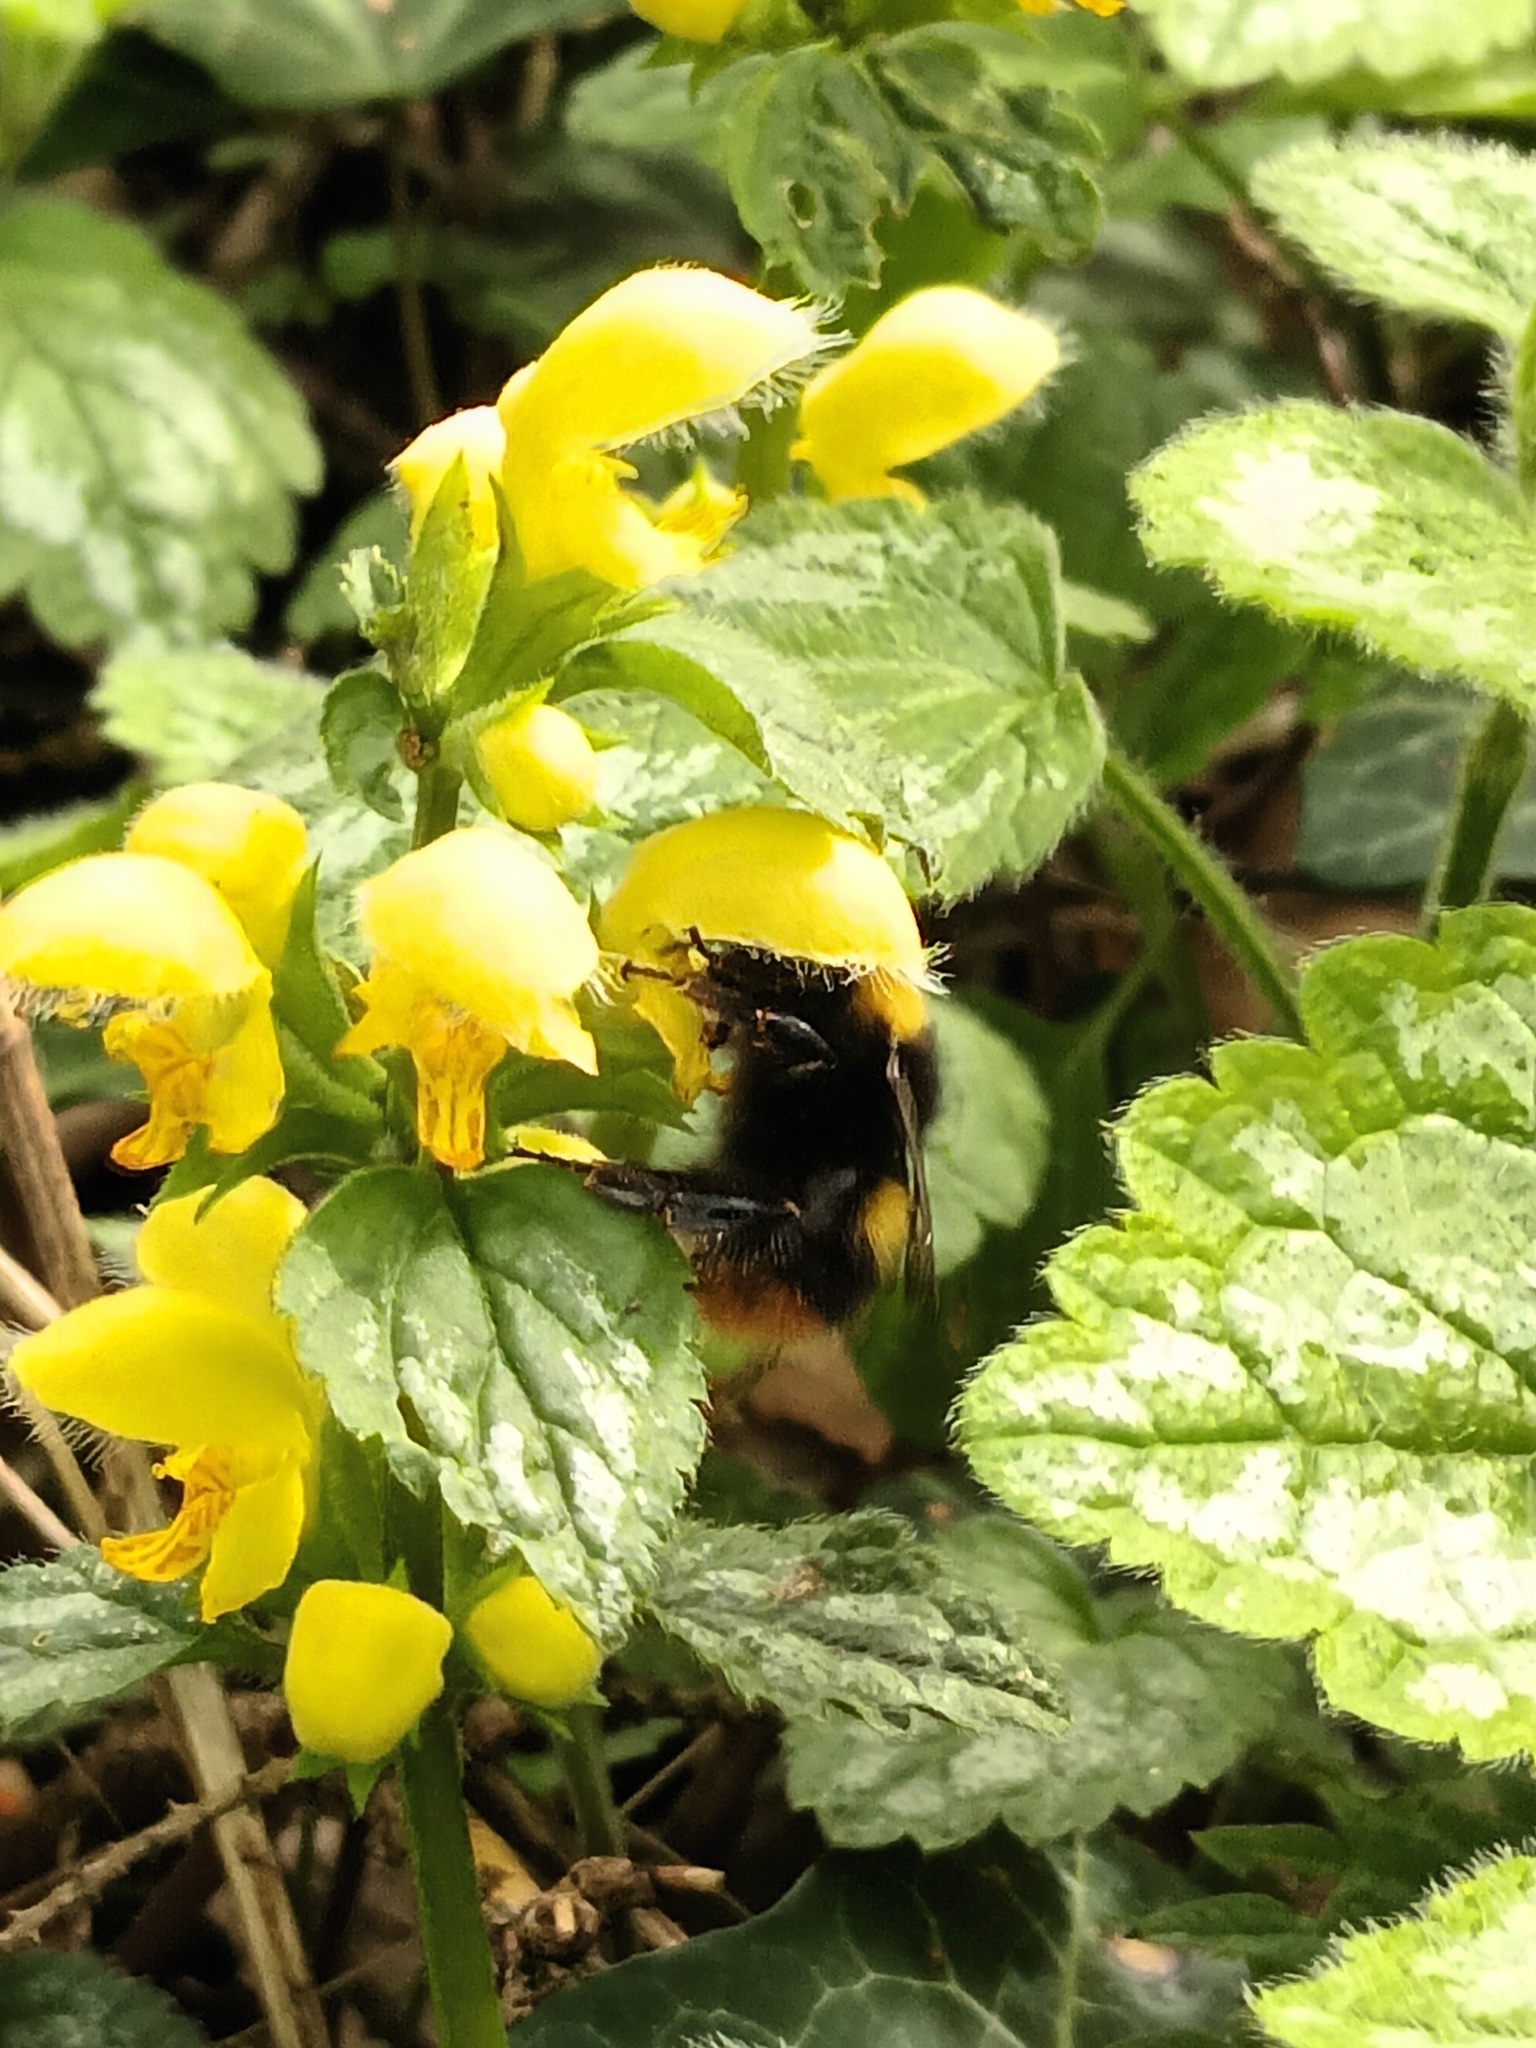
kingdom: Animalia
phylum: Arthropoda
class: Insecta
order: Hymenoptera
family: Apidae
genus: Bombus
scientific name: Bombus pratorum
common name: Early humble-bee
